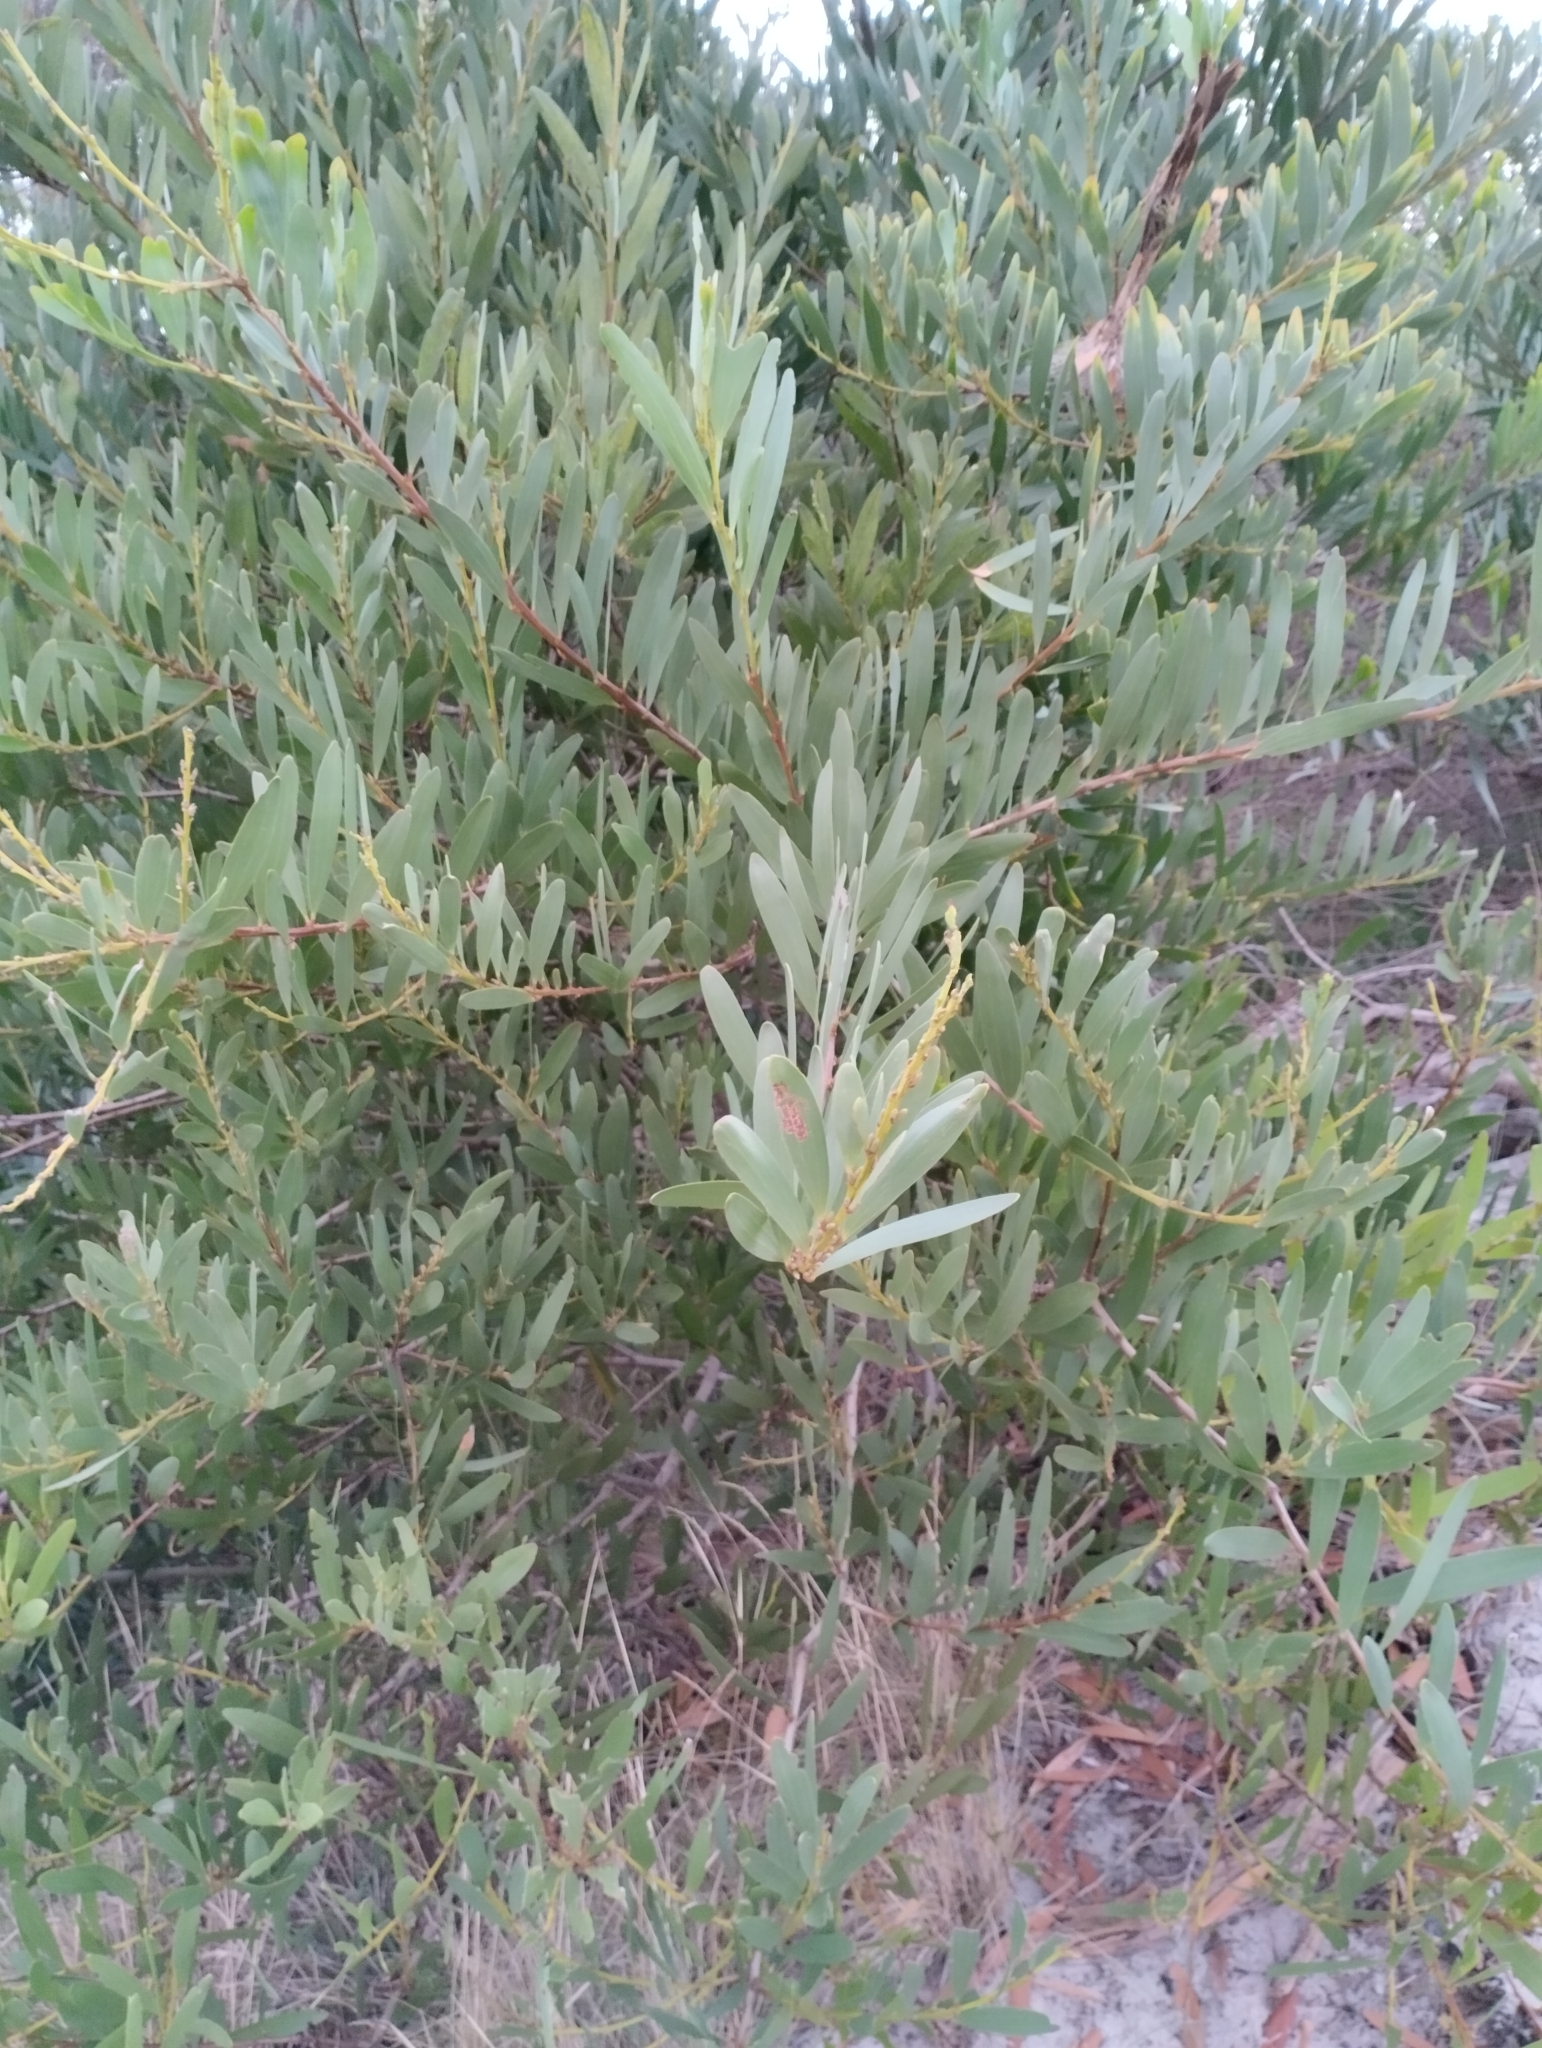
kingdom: Plantae
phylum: Tracheophyta
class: Magnoliopsida
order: Fabales
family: Fabaceae
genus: Acacia
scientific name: Acacia longifolia
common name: Sydney golden wattle
